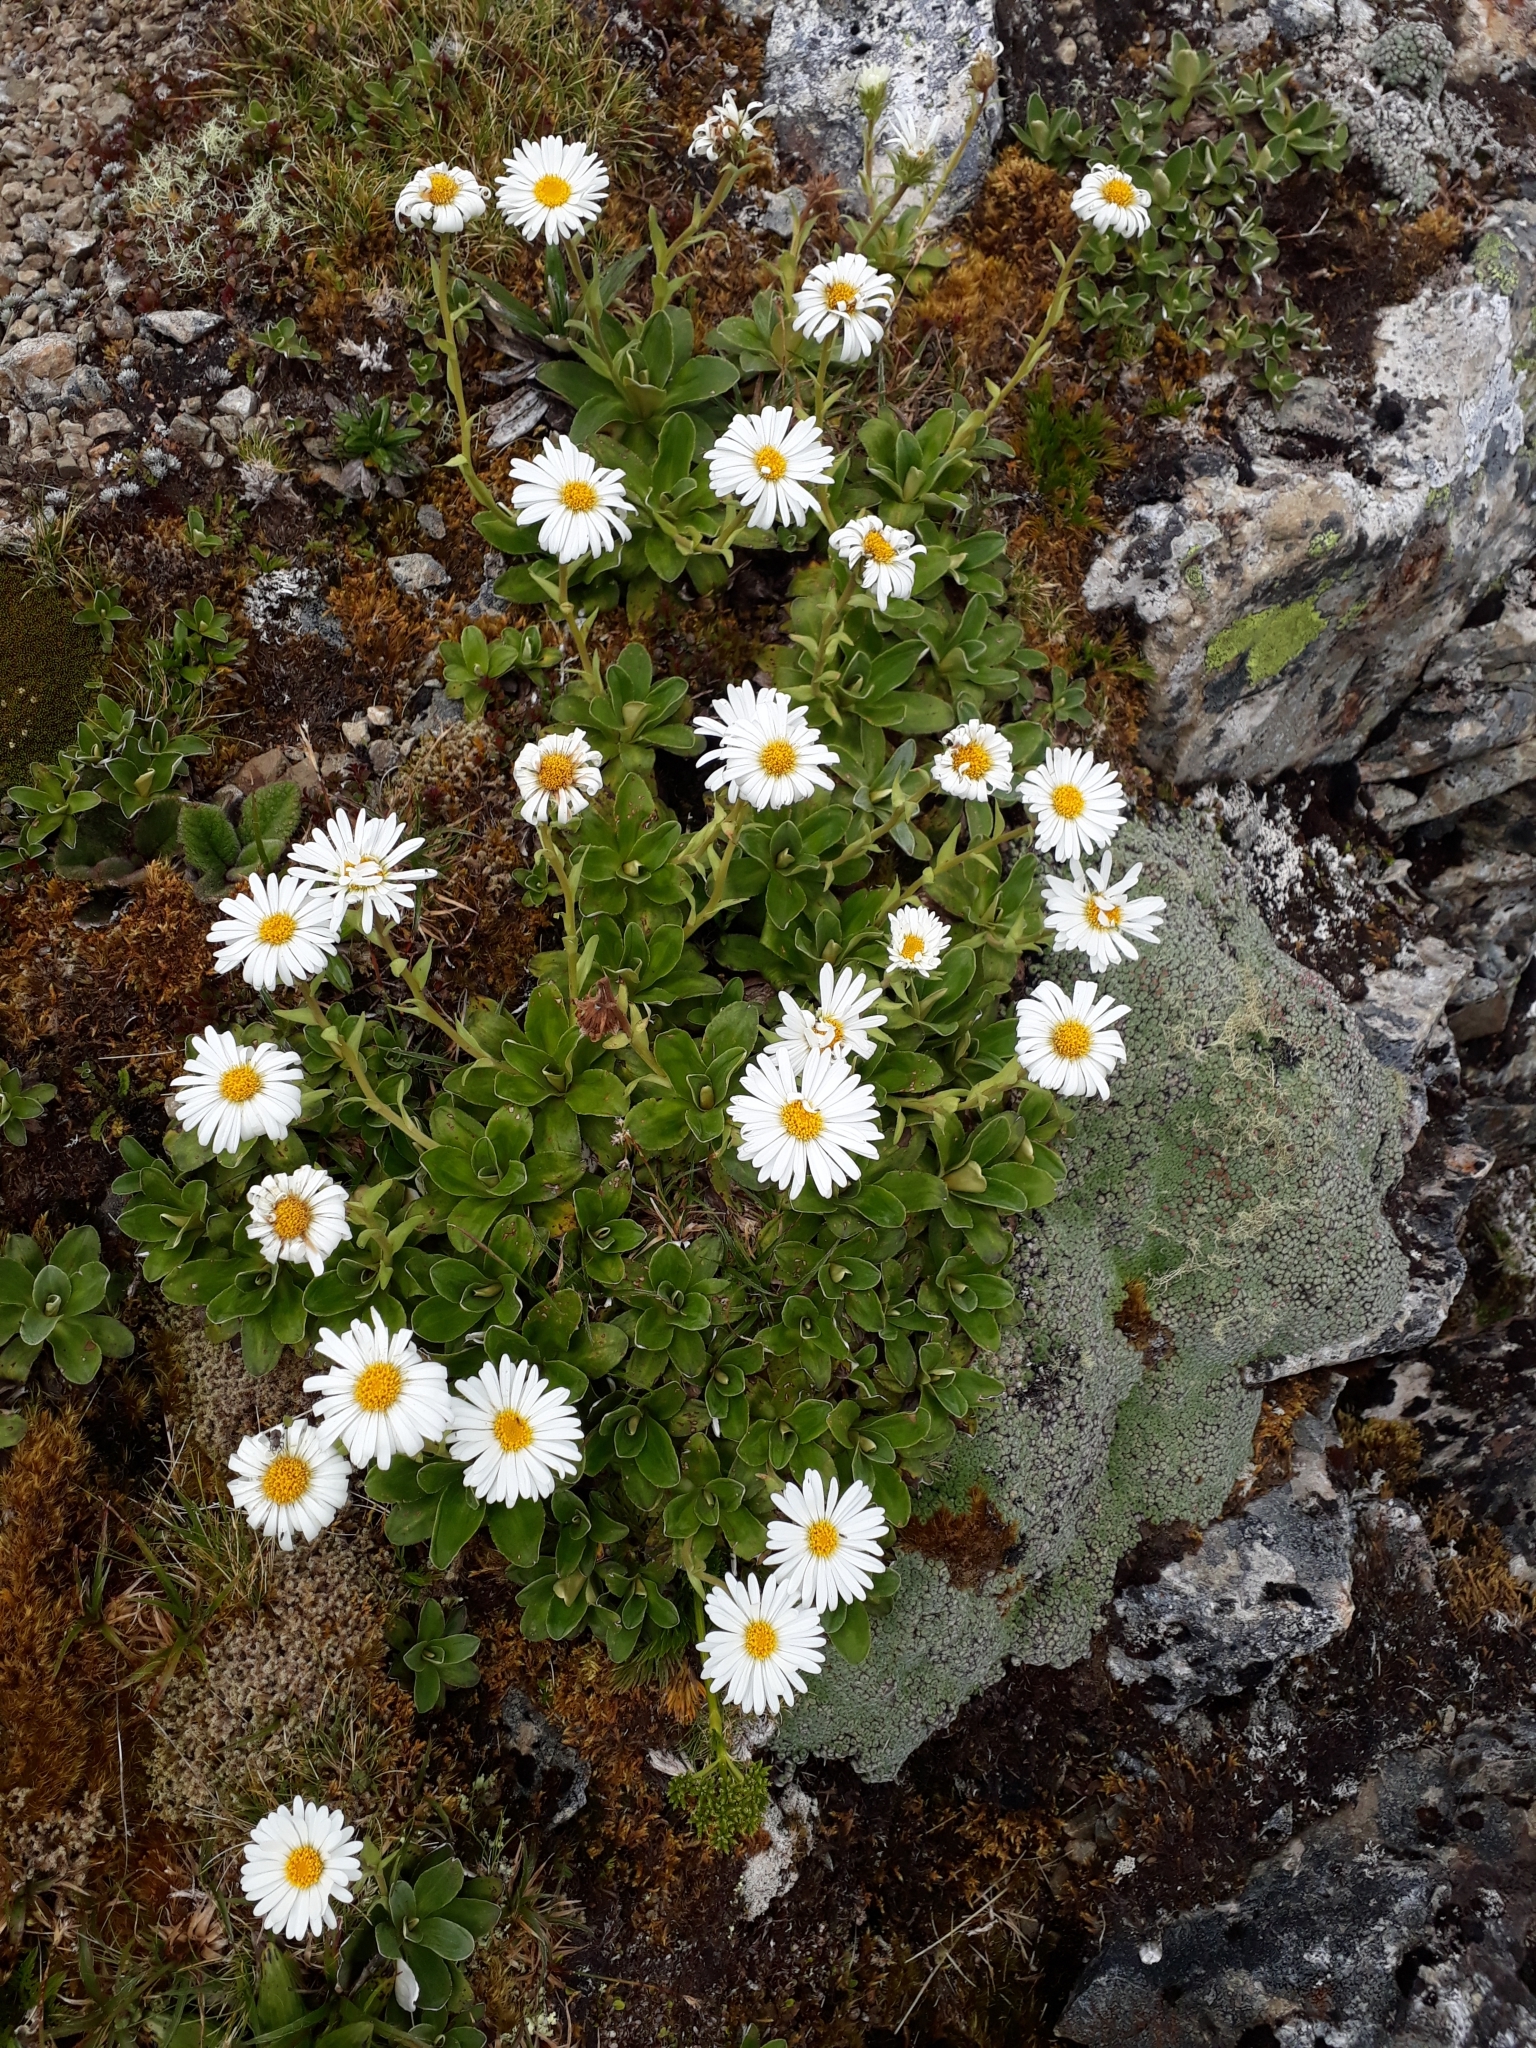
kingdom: Plantae
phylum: Tracheophyta
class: Magnoliopsida
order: Asterales
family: Asteraceae
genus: Celmisia
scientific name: Celmisia hieraciifolia
